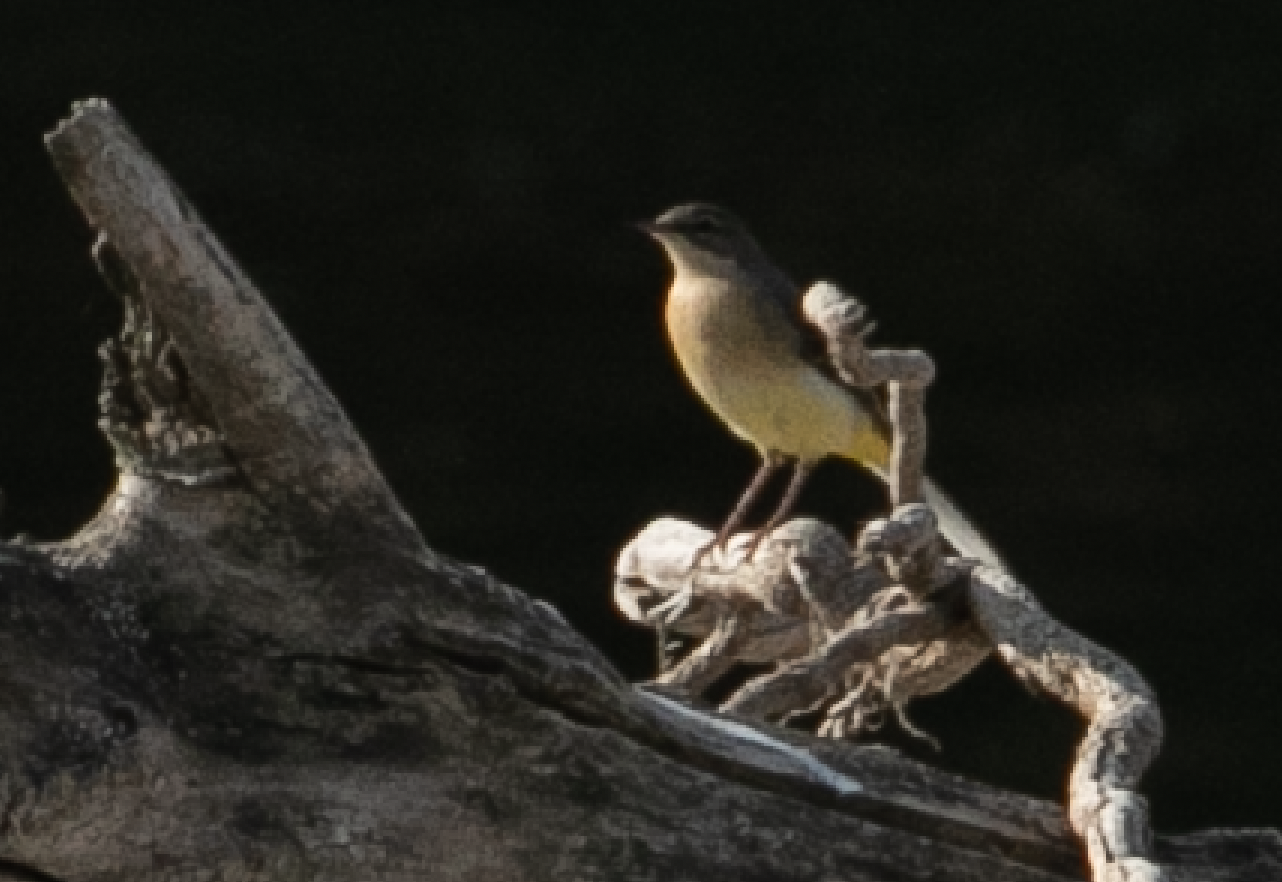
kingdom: Animalia
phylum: Chordata
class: Aves
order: Passeriformes
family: Motacillidae
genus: Motacilla
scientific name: Motacilla cinerea
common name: Grey wagtail
